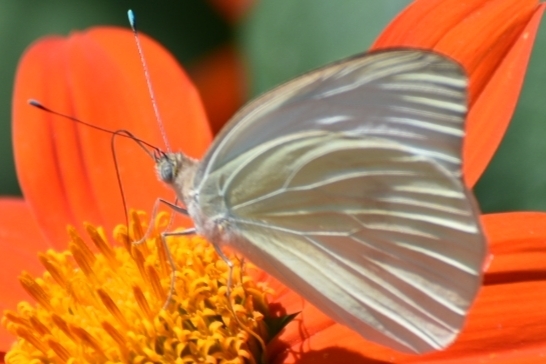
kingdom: Animalia
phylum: Arthropoda
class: Insecta
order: Lepidoptera
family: Pieridae
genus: Ascia
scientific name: Ascia monuste
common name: Great southern white
